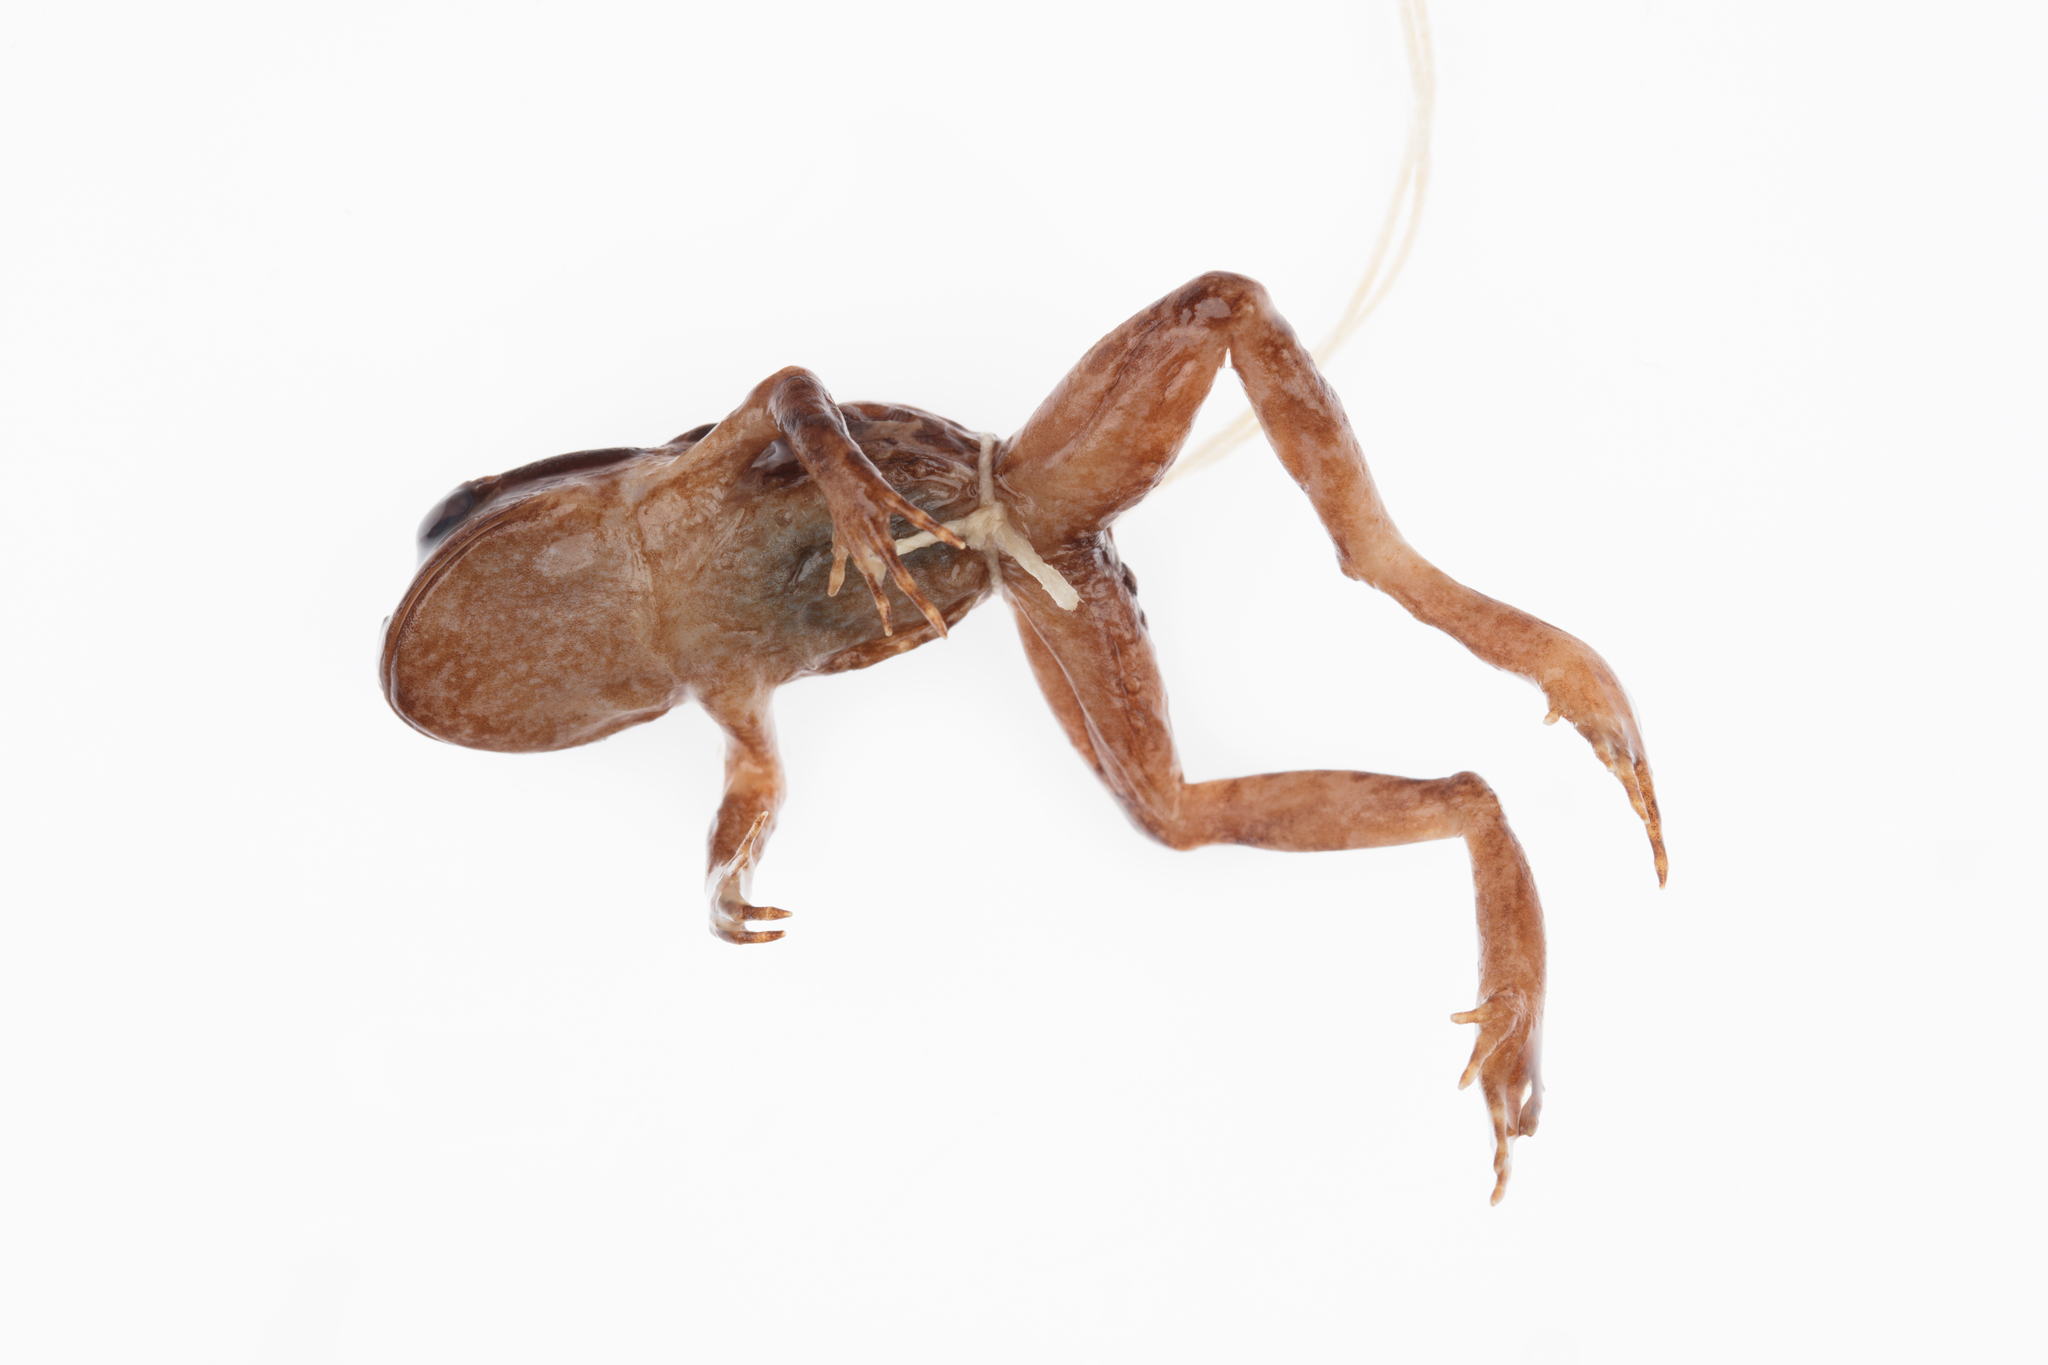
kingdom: Animalia
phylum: Chordata
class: Amphibia
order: Anura
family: Leiopelmatidae
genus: Leiopelma
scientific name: Leiopelma archeyi
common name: Archey's frog
